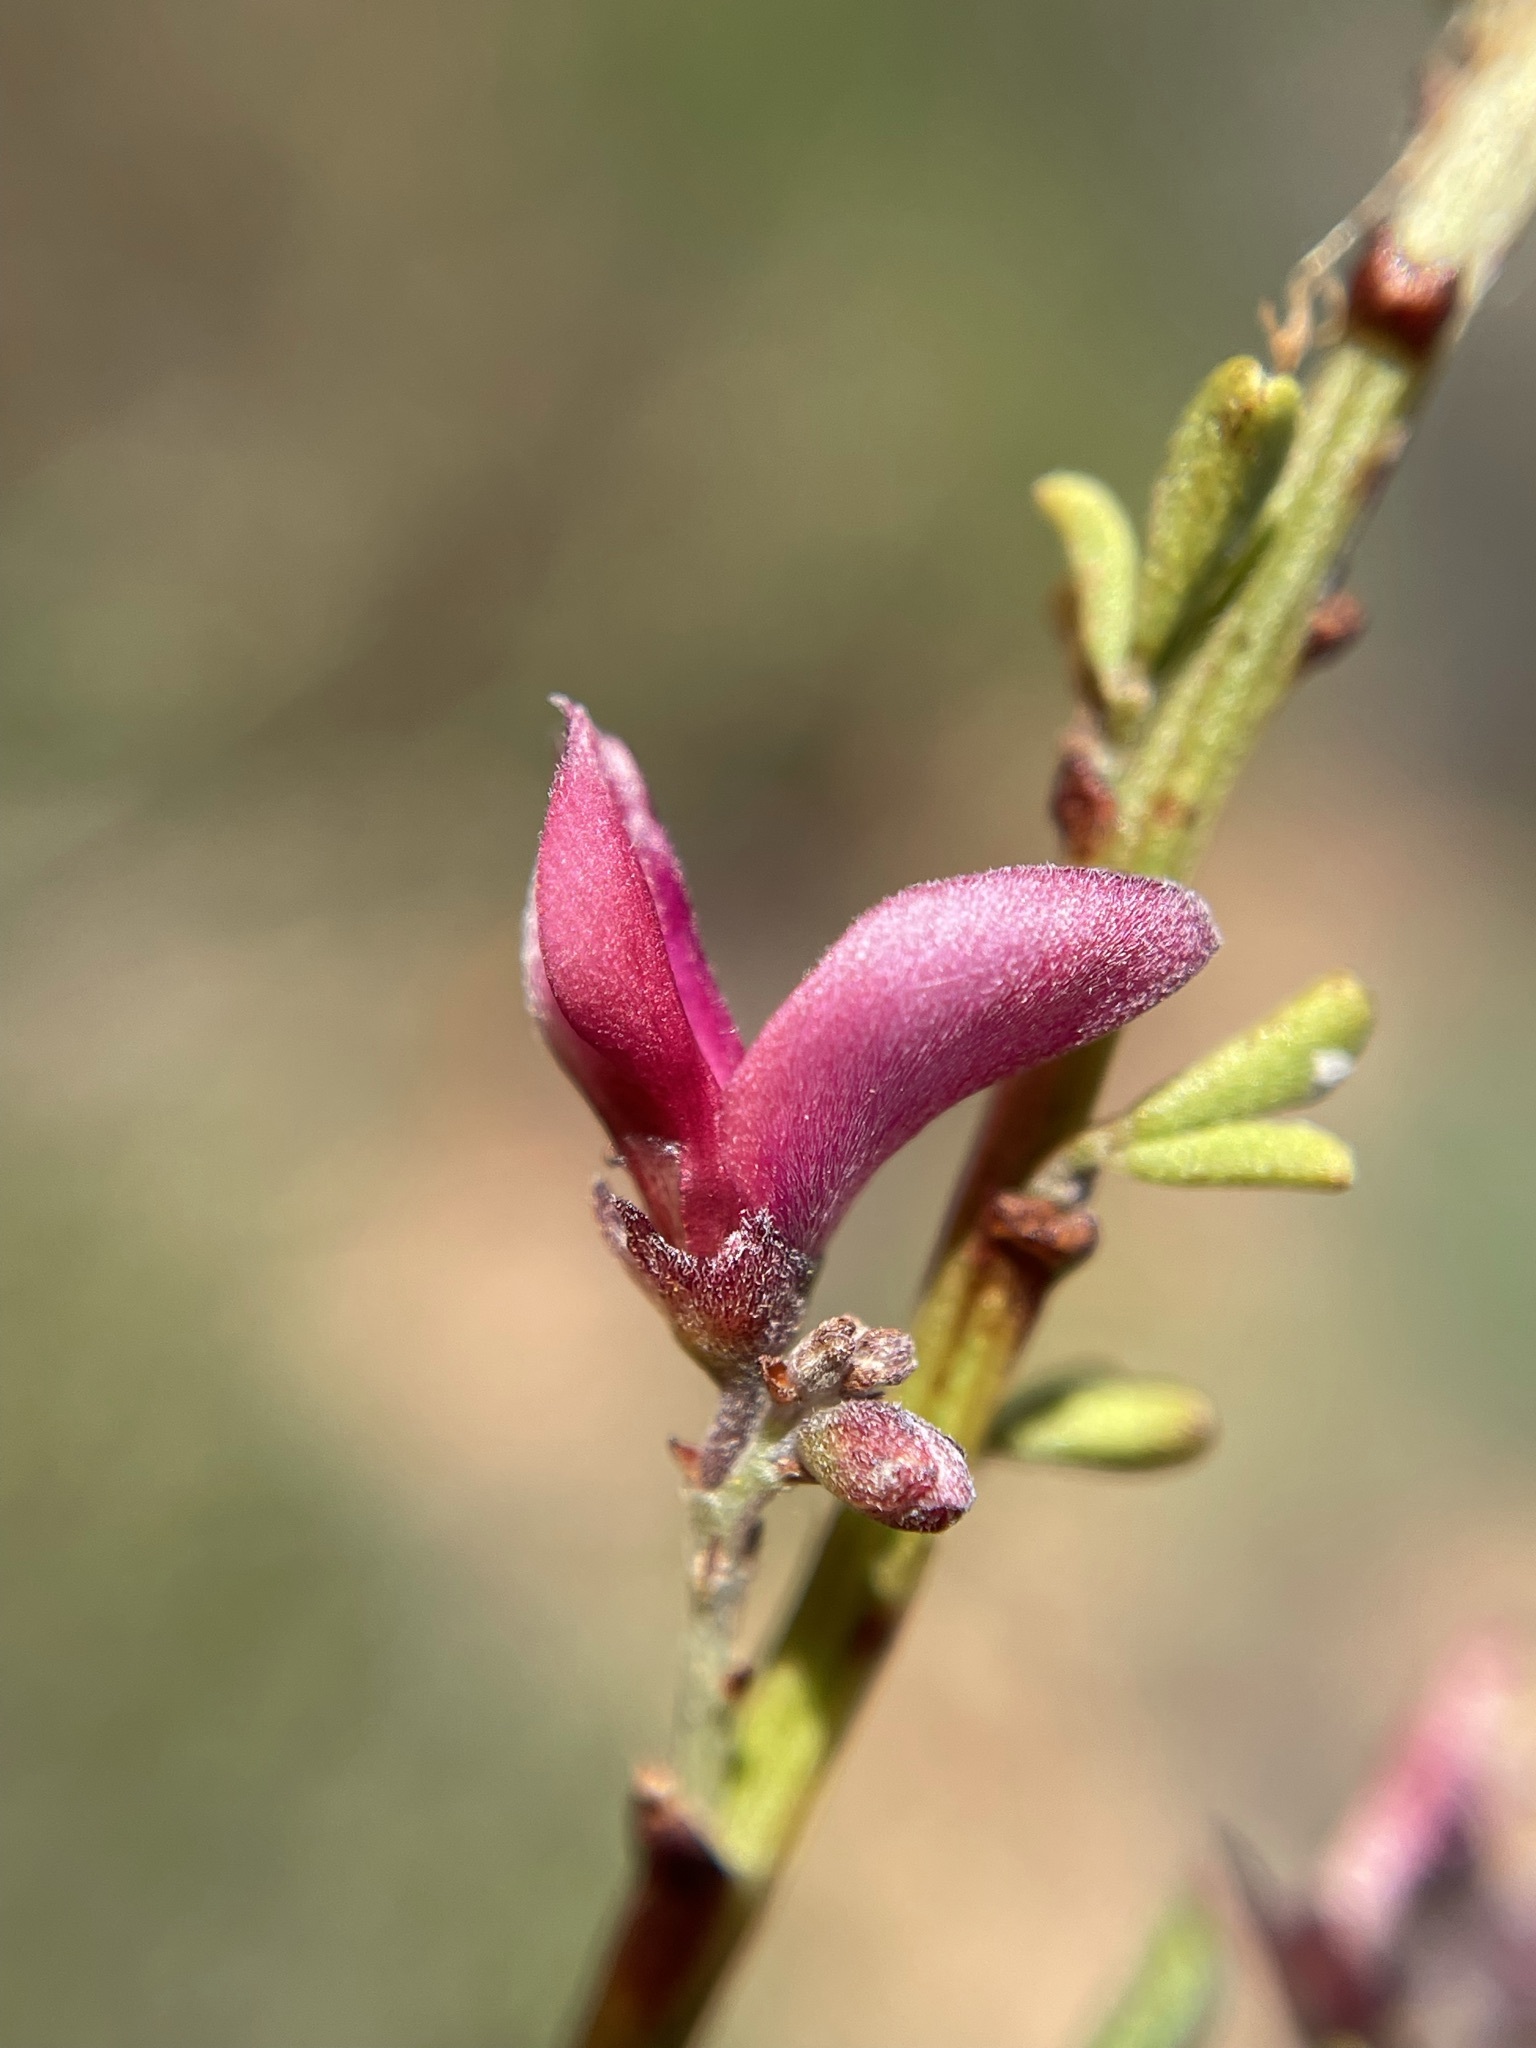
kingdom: Plantae
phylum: Tracheophyta
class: Magnoliopsida
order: Fabales
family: Fabaceae
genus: Indigofera
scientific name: Indigofera spinescens
